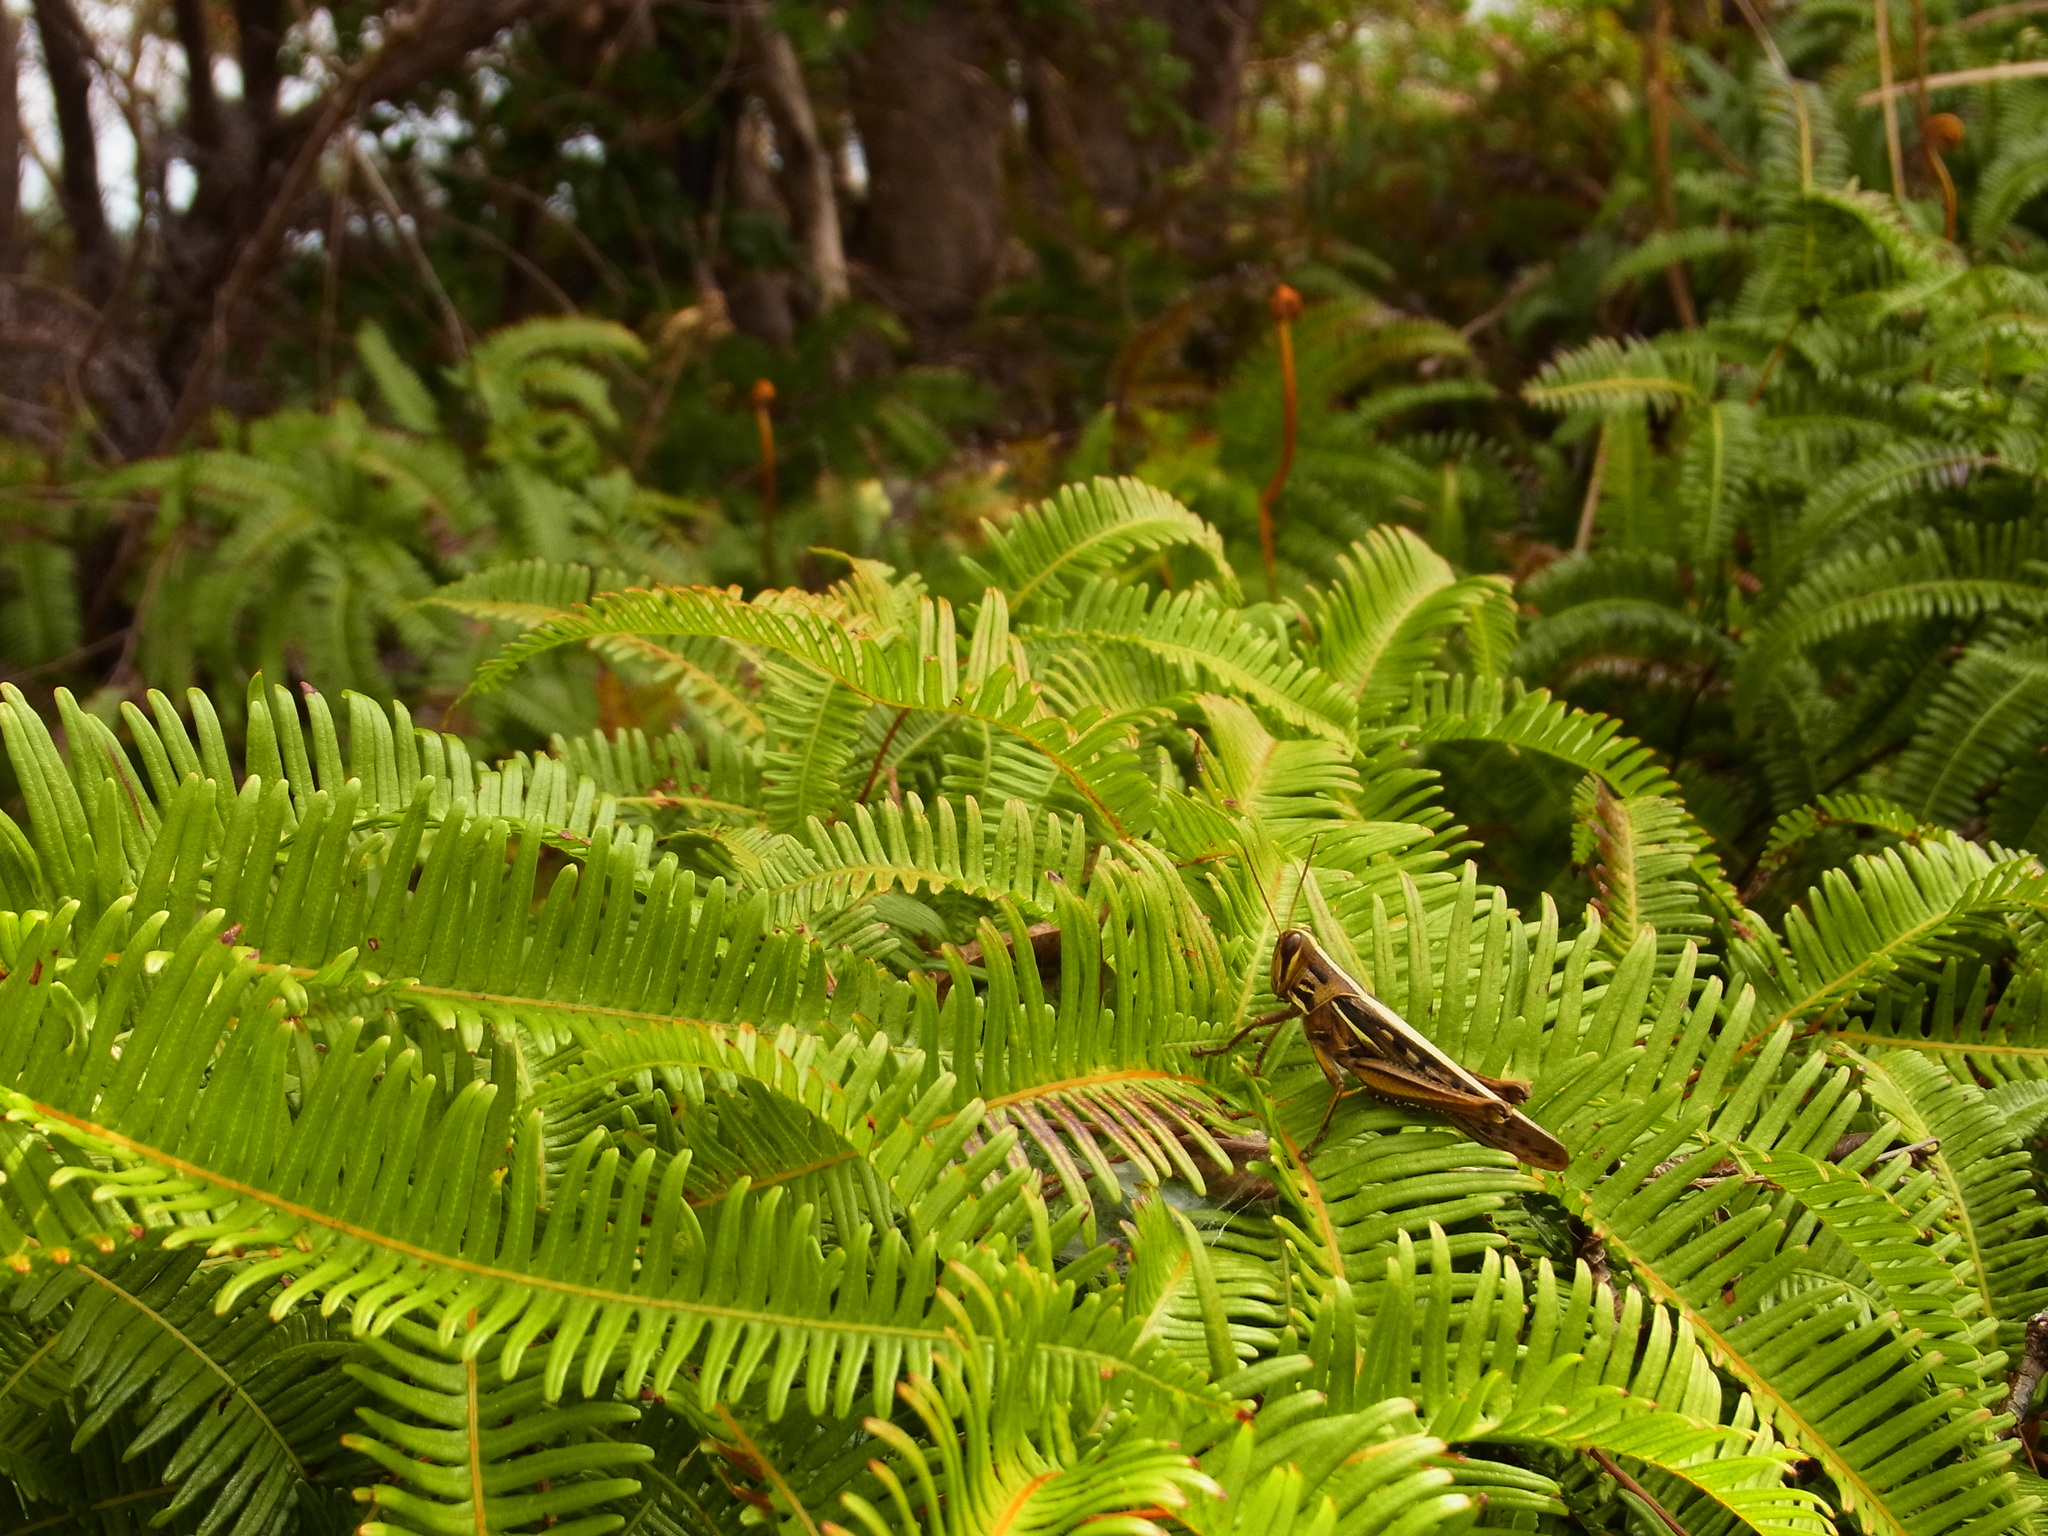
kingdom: Animalia
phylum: Arthropoda
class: Insecta
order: Orthoptera
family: Acrididae
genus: Patanga
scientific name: Patanga japonica
